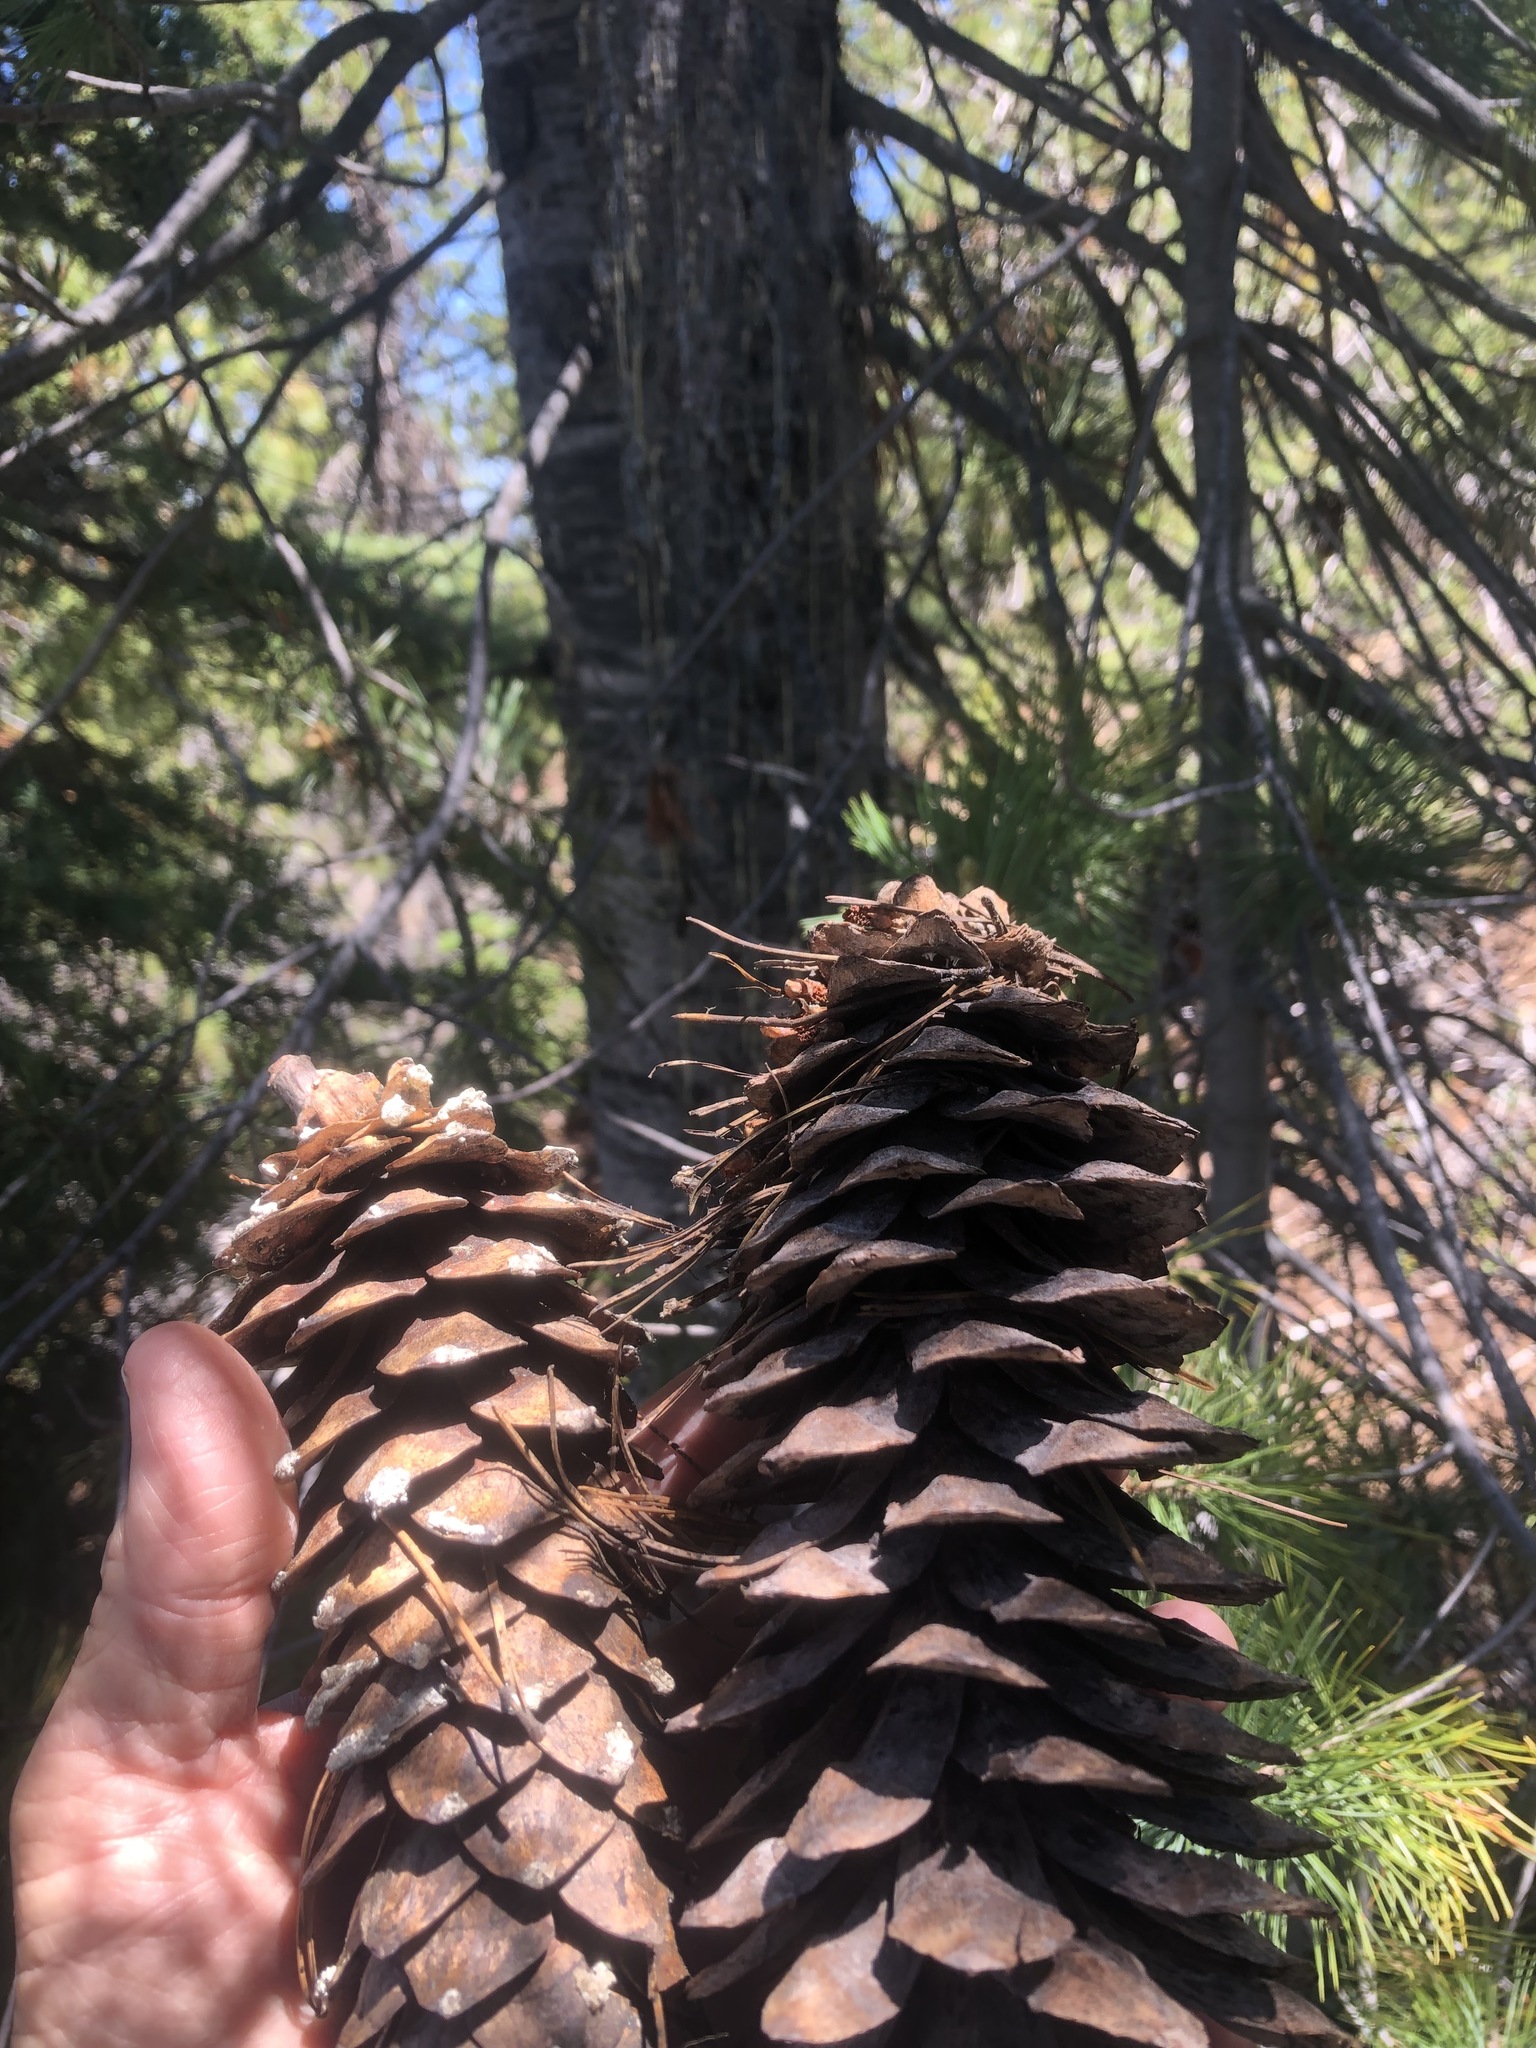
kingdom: Plantae
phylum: Tracheophyta
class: Pinopsida
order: Pinales
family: Pinaceae
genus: Pinus
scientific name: Pinus monticola
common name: Western white pine
